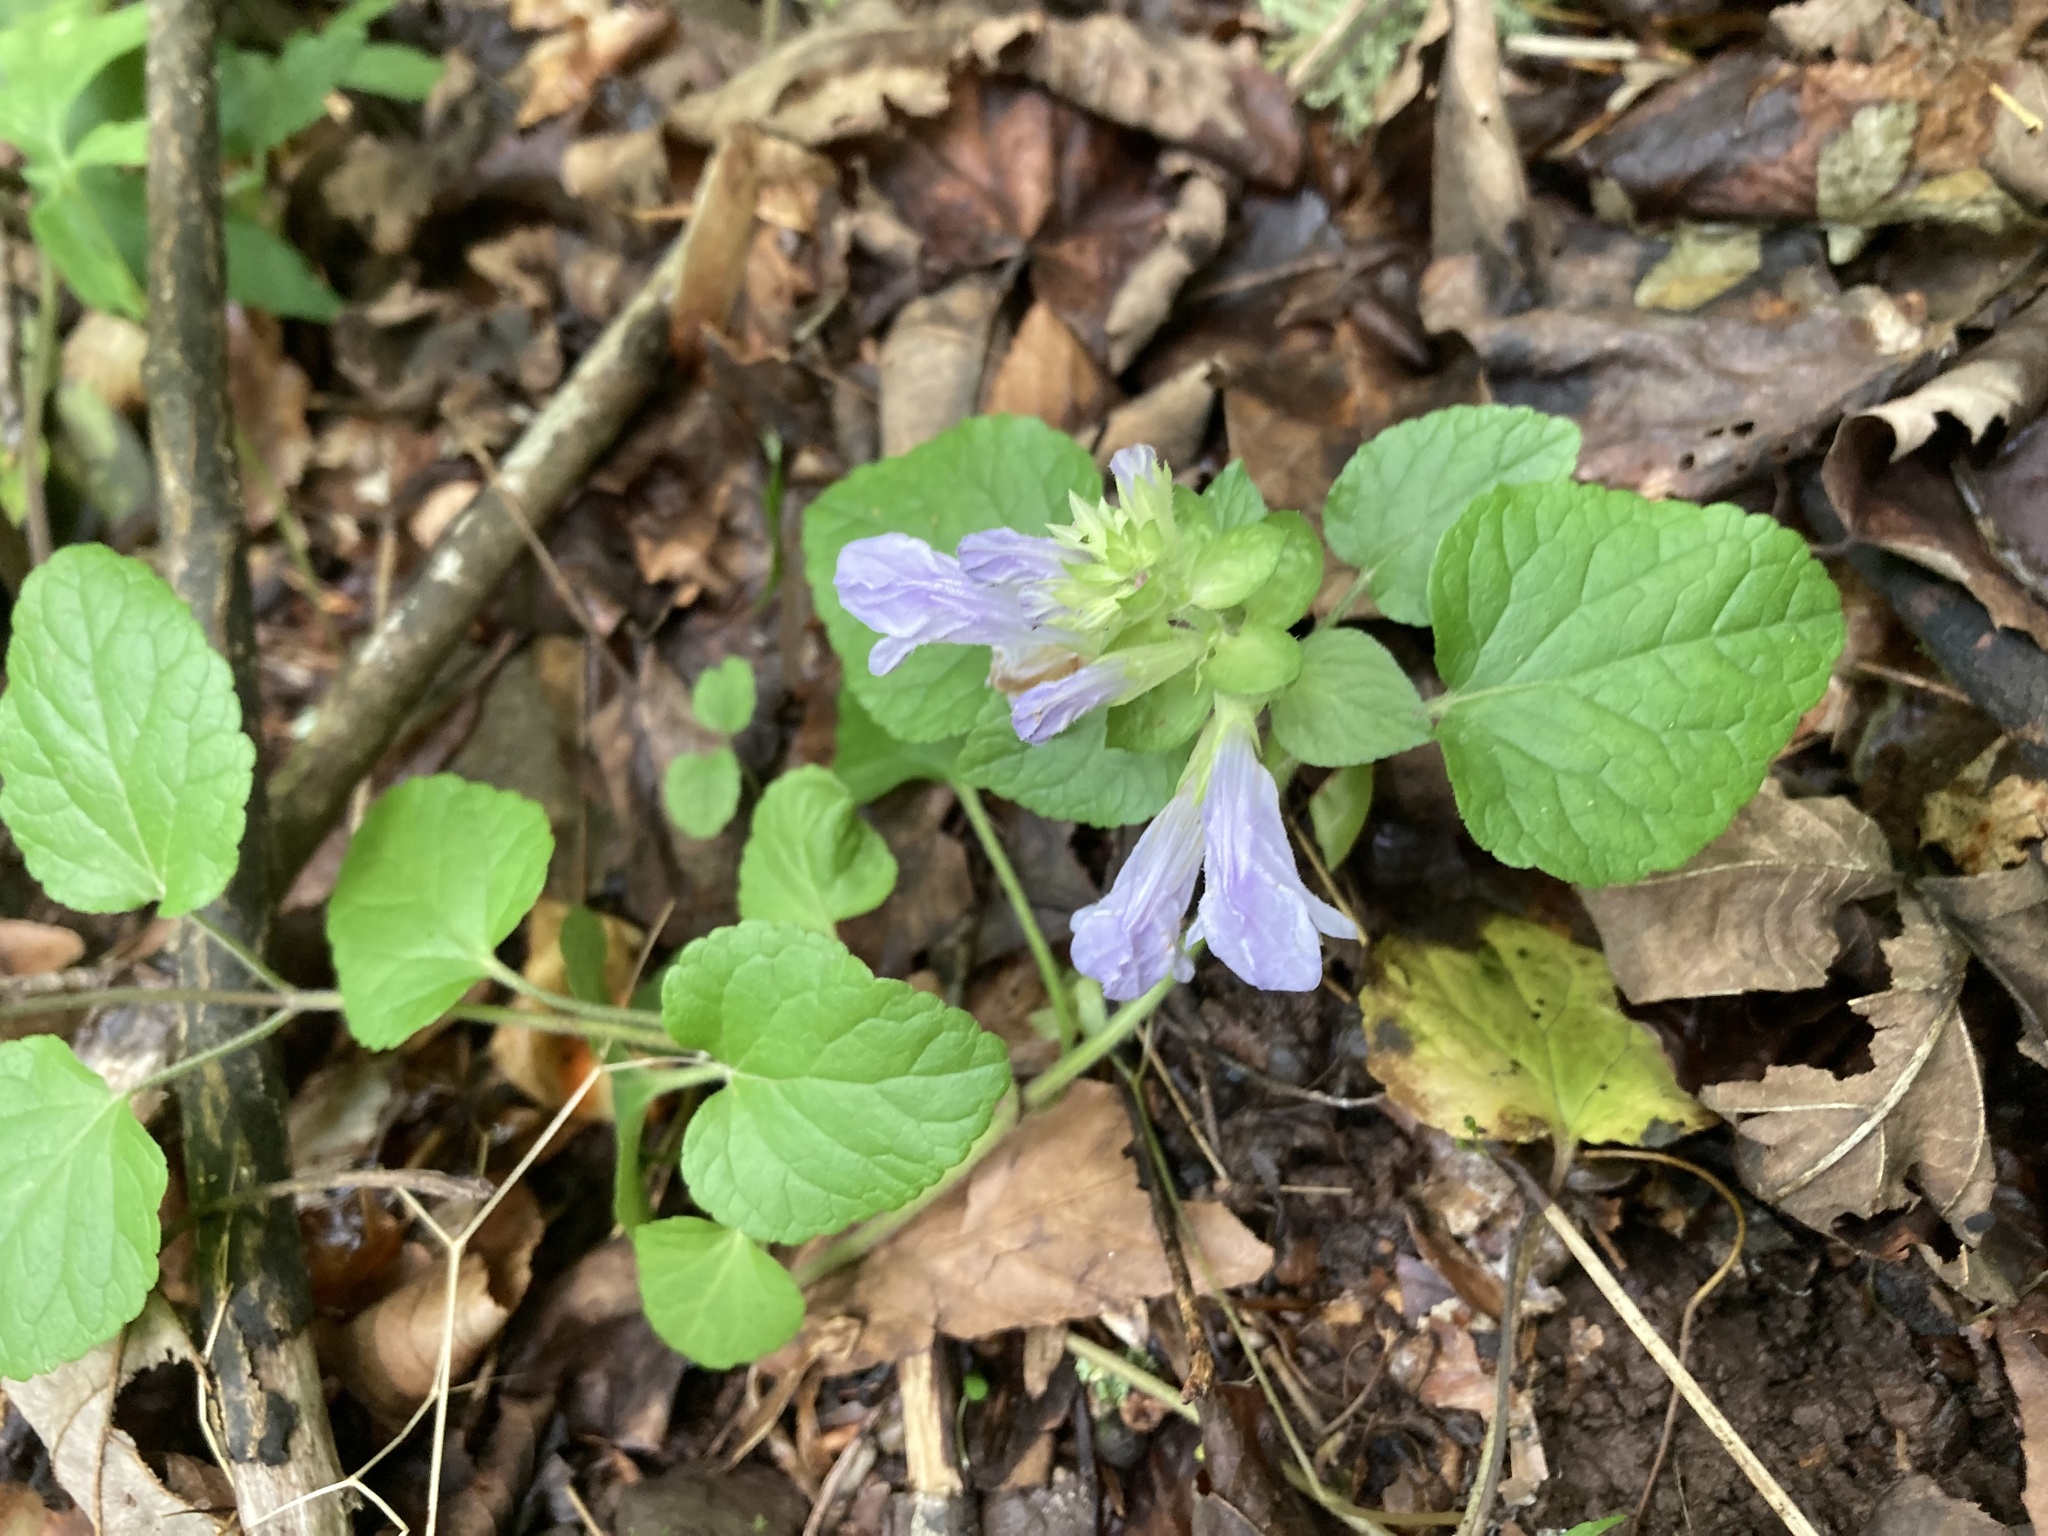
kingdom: Plantae
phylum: Tracheophyta
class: Magnoliopsida
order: Lamiales
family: Lamiaceae
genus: Meehania
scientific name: Meehania cordata
